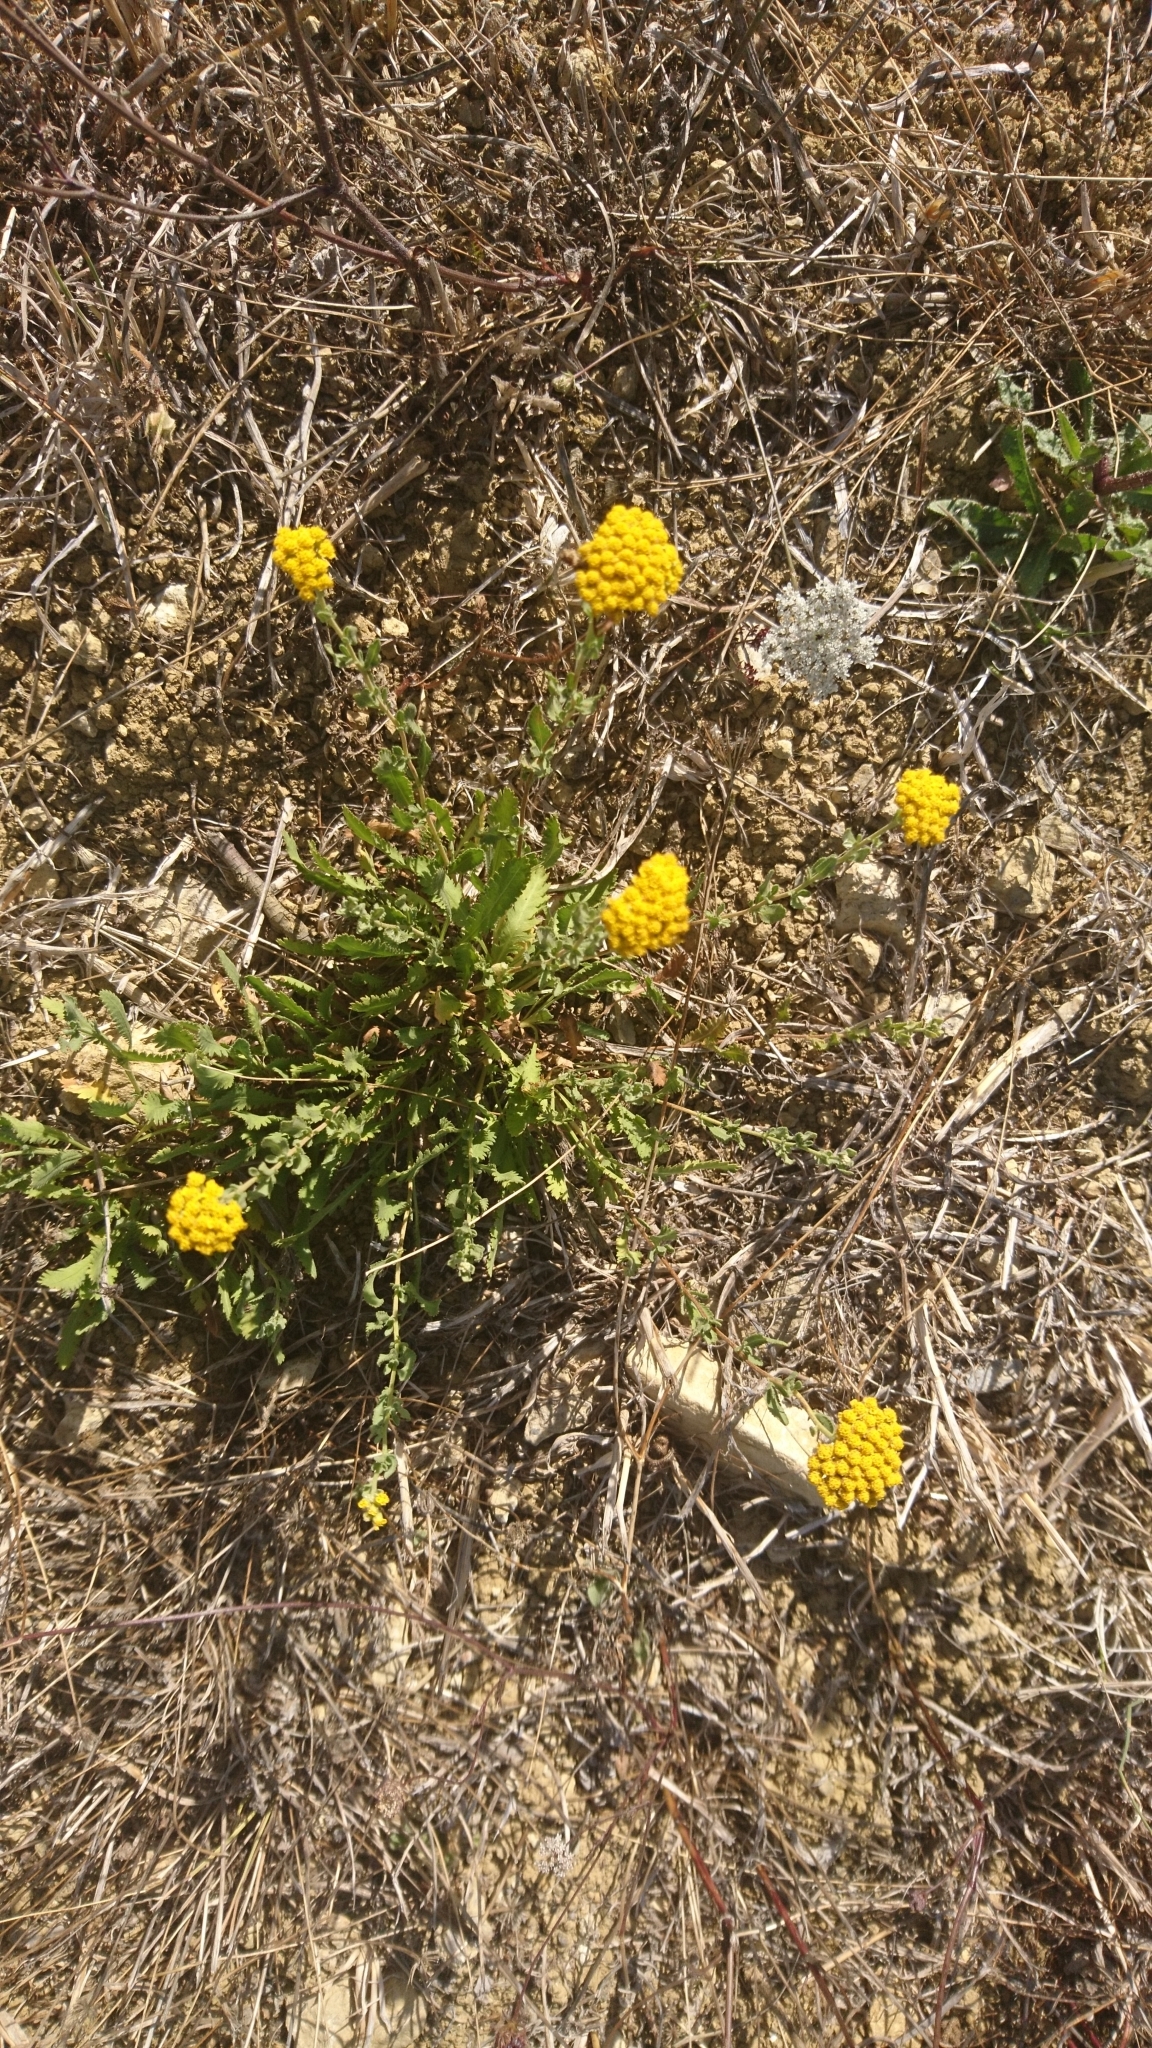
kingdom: Plantae
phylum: Tracheophyta
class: Magnoliopsida
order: Asterales
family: Asteraceae
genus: Achillea
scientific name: Achillea ageratum
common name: Sweet-nancy
